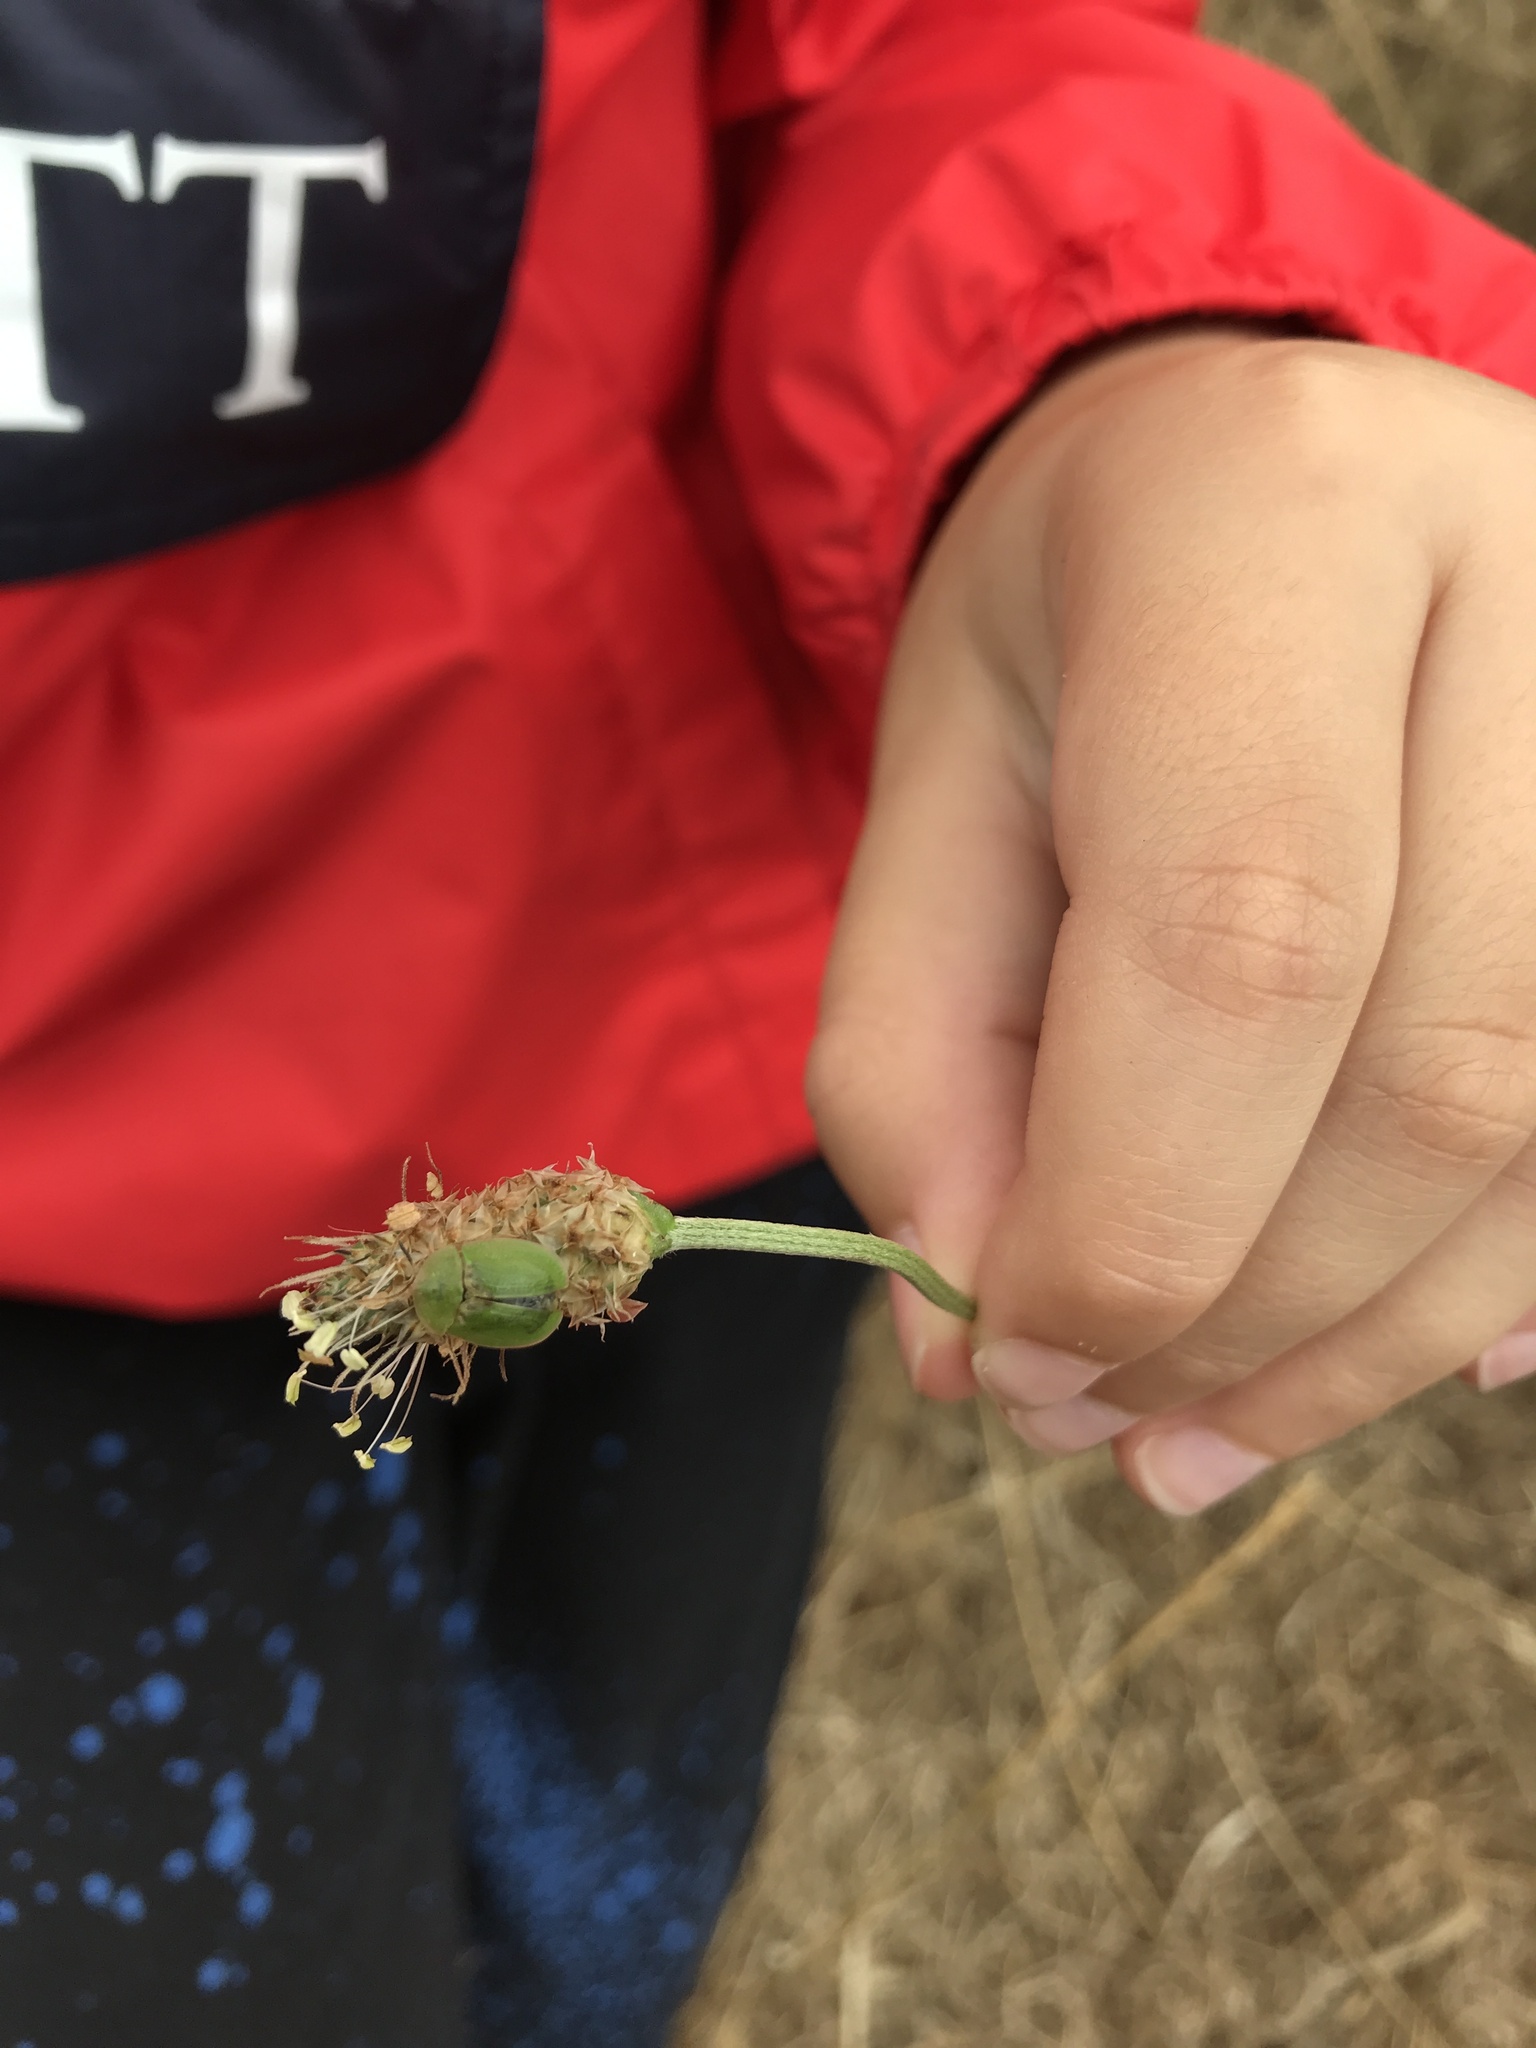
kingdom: Animalia
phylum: Arthropoda
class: Insecta
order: Coleoptera
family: Chrysomelidae
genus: Cassida
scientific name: Cassida rubiginosa
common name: Thistle tortoise beetle
